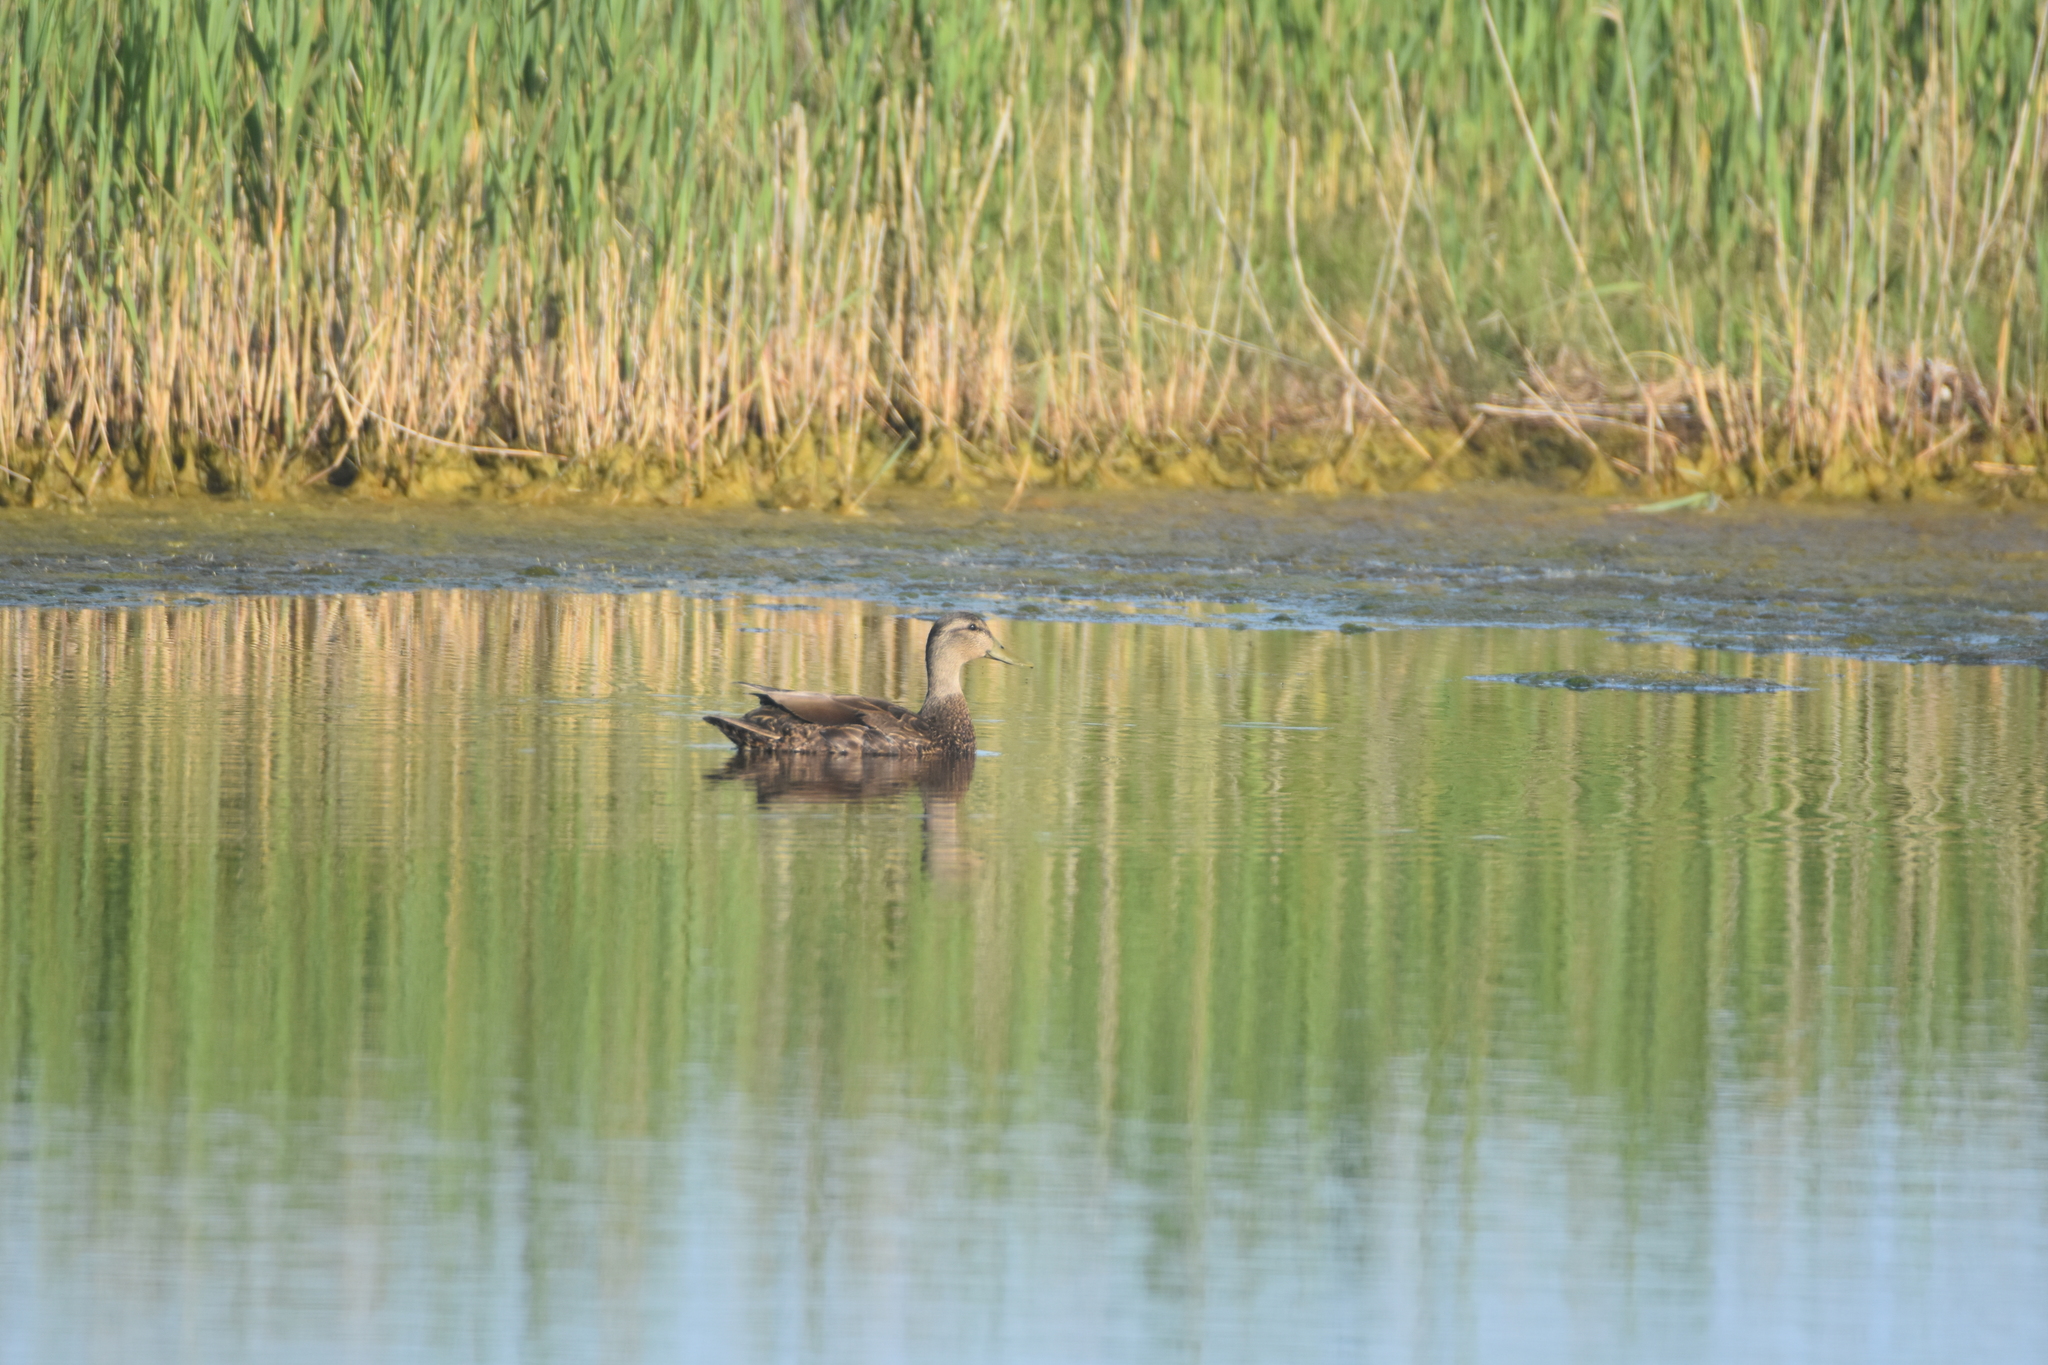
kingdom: Animalia
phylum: Chordata
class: Aves
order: Anseriformes
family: Anatidae
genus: Anas
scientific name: Anas rubripes
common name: American black duck
